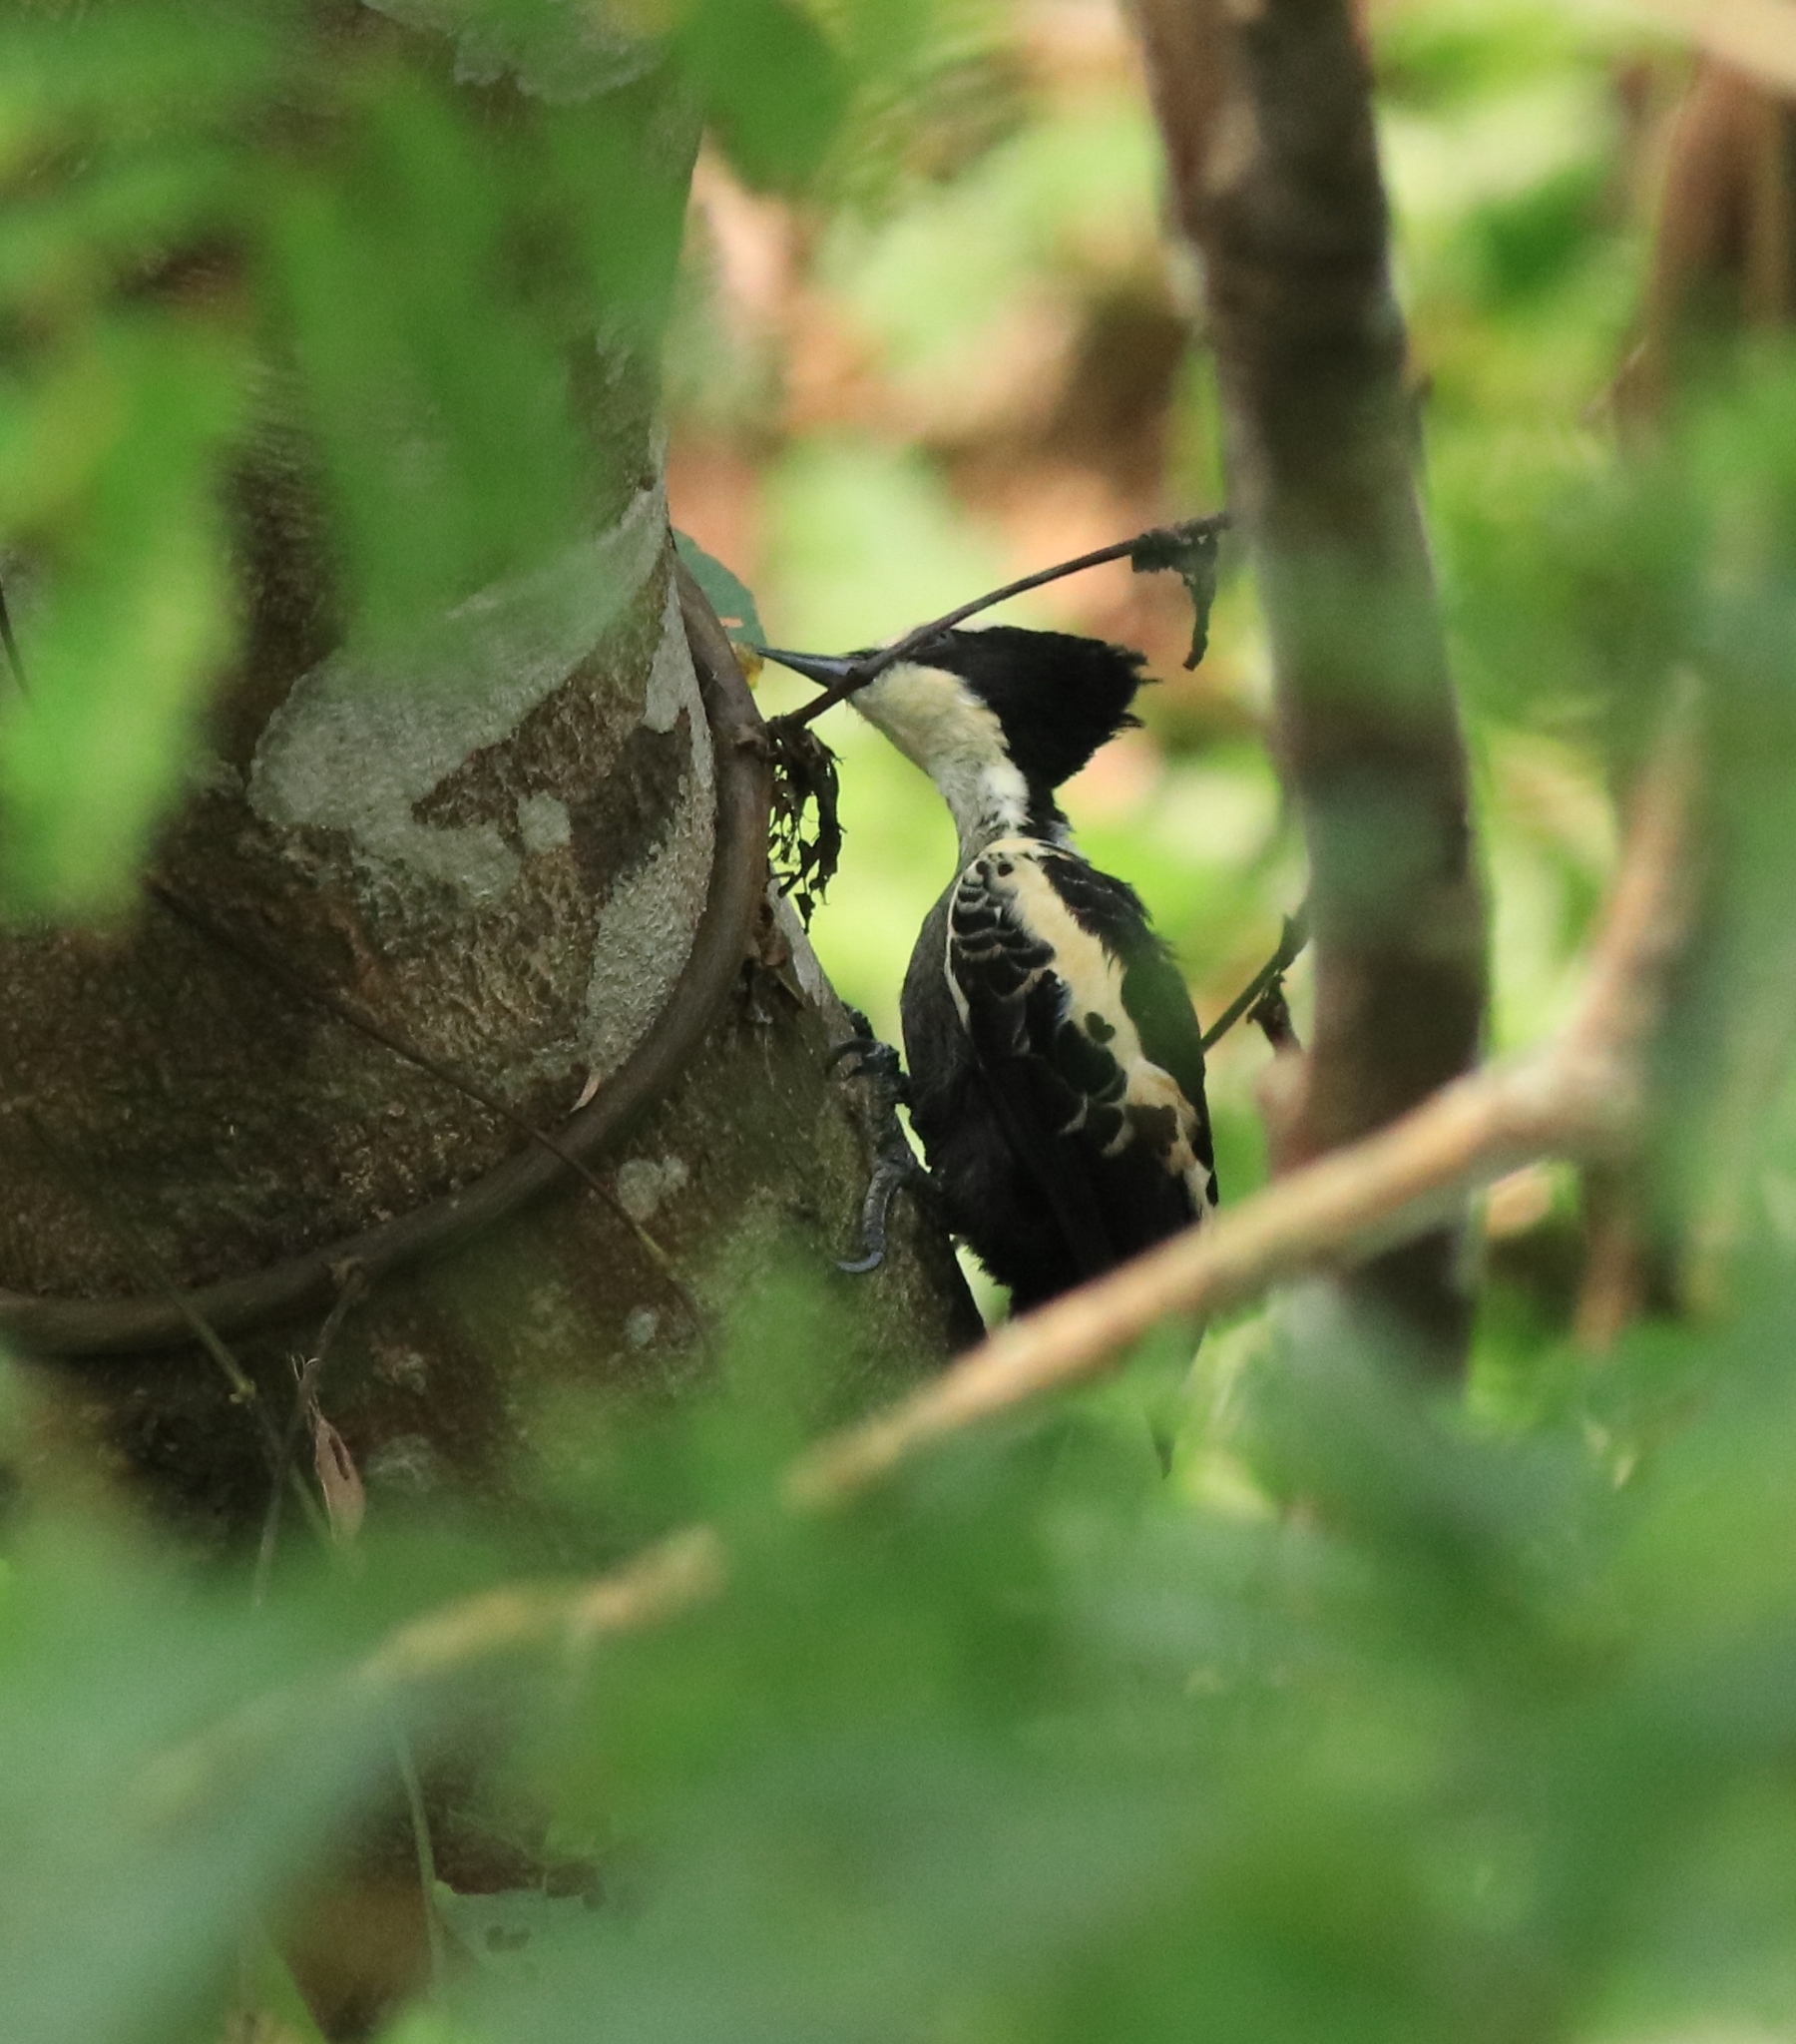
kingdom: Animalia
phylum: Chordata
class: Aves
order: Piciformes
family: Picidae
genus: Hemicircus
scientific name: Hemicircus canente
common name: Heart-spotted woodpecker
